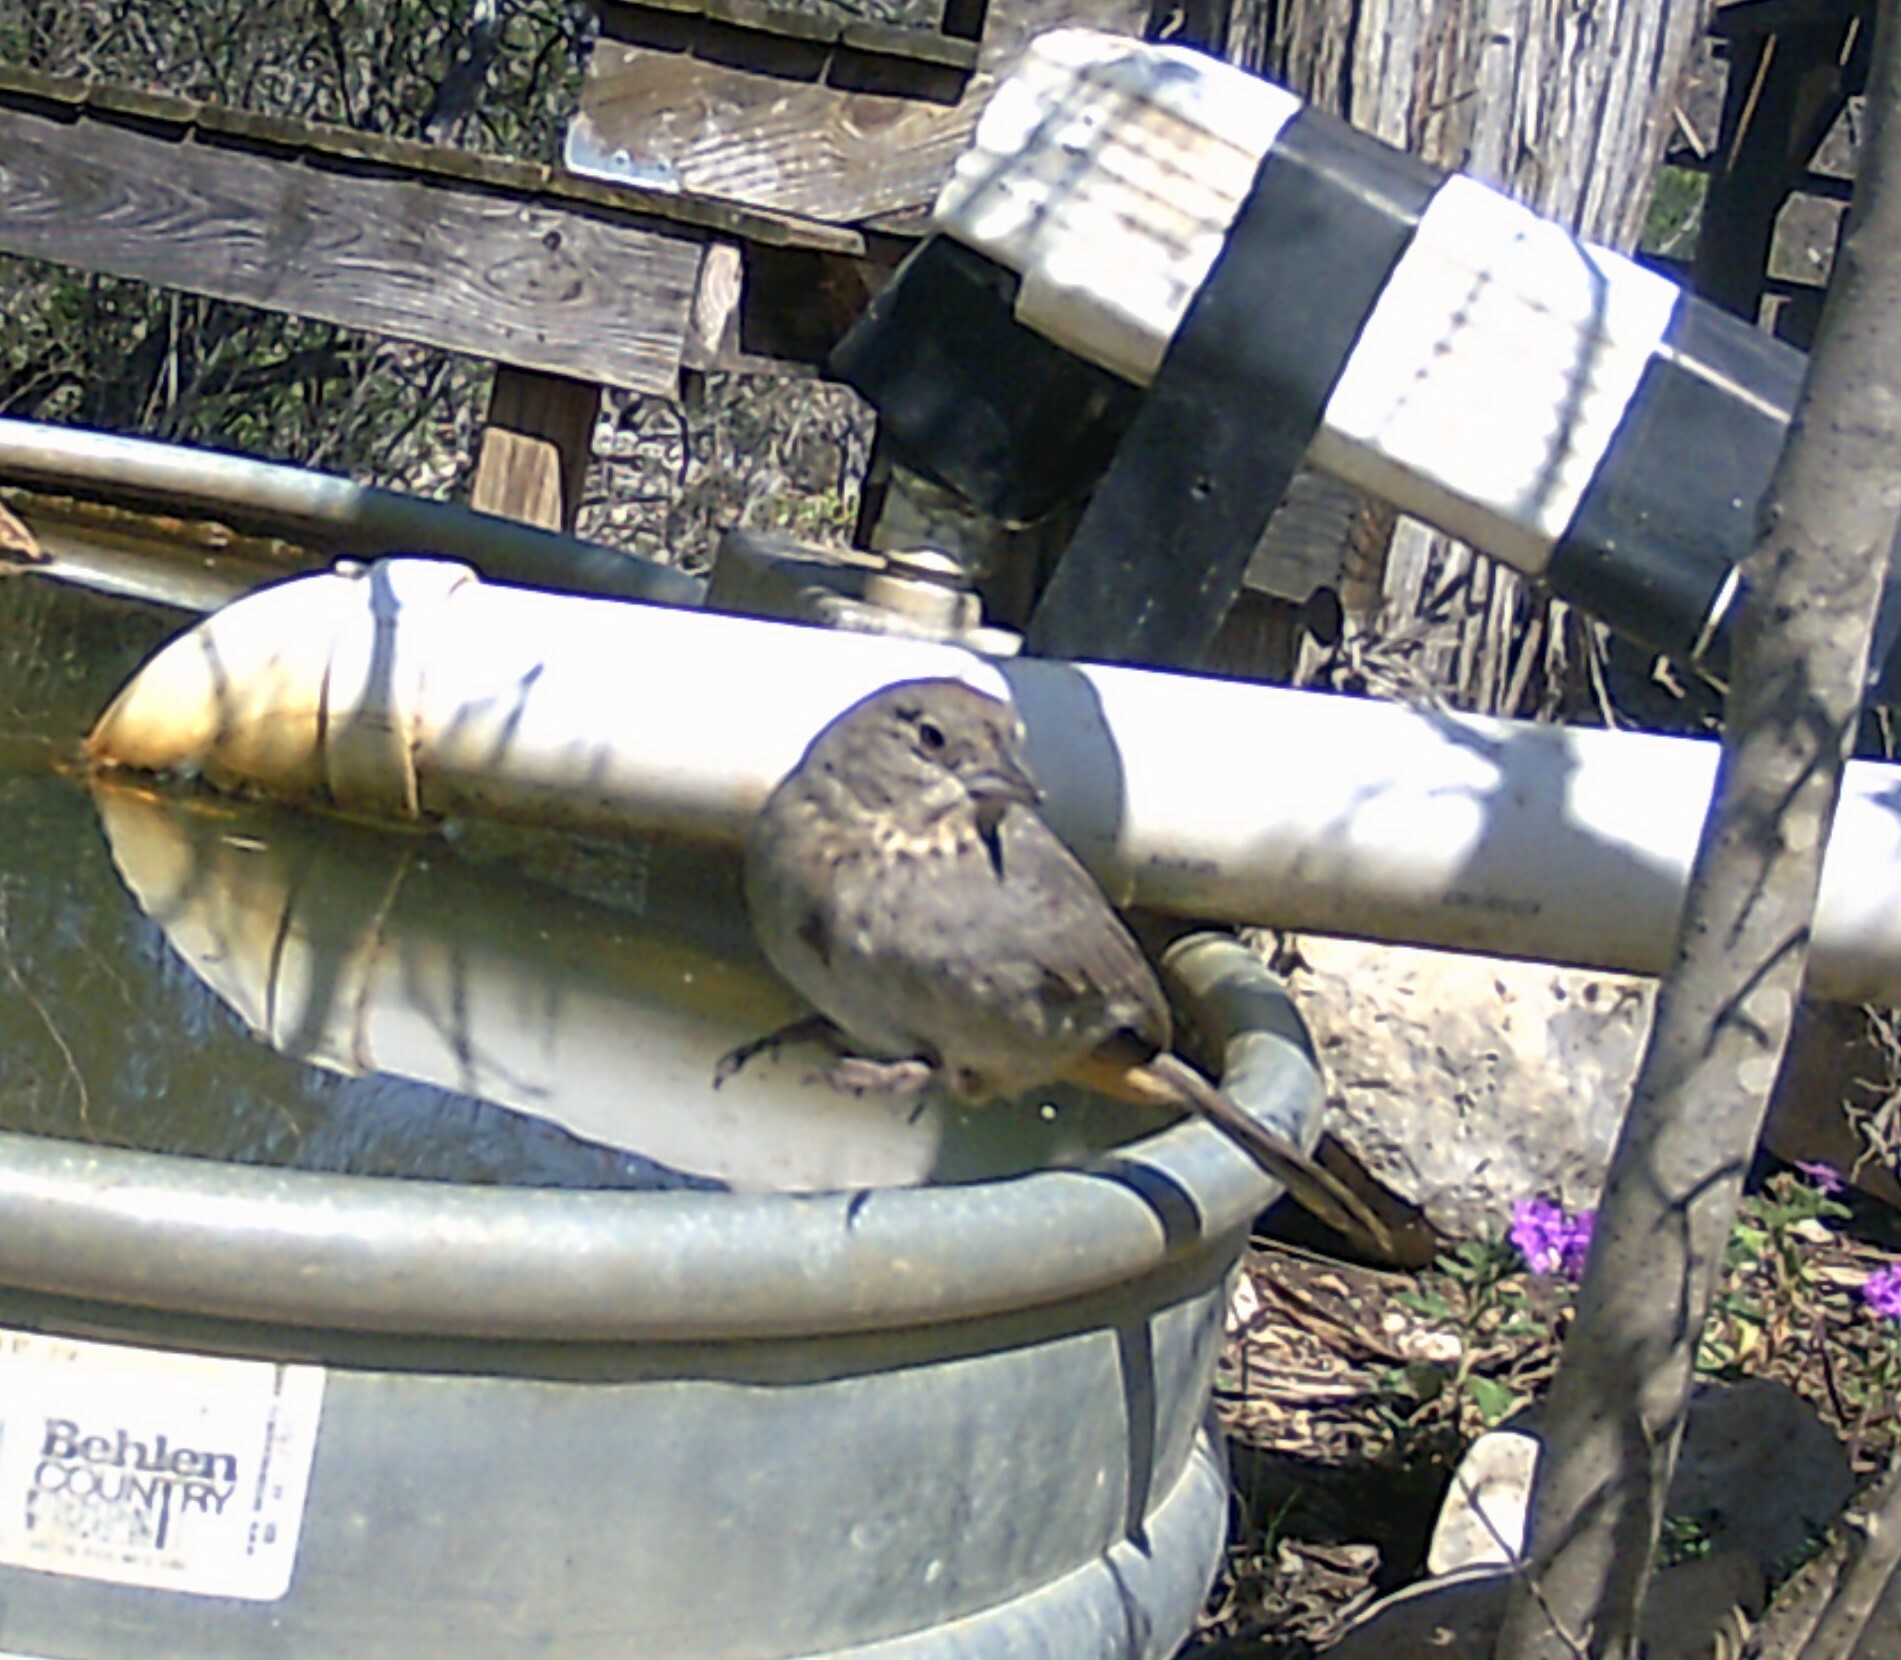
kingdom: Animalia
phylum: Chordata
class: Aves
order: Passeriformes
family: Passerellidae
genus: Melozone
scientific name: Melozone fusca
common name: Canyon towhee
